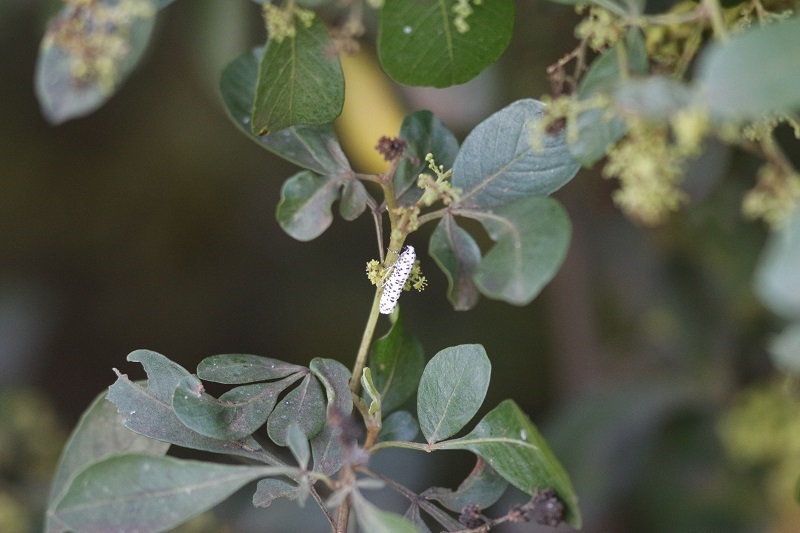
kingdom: Animalia
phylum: Arthropoda
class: Insecta
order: Lepidoptera
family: Erebidae
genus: Utetheisa
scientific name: Utetheisa pulchella
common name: Crimson speckled
